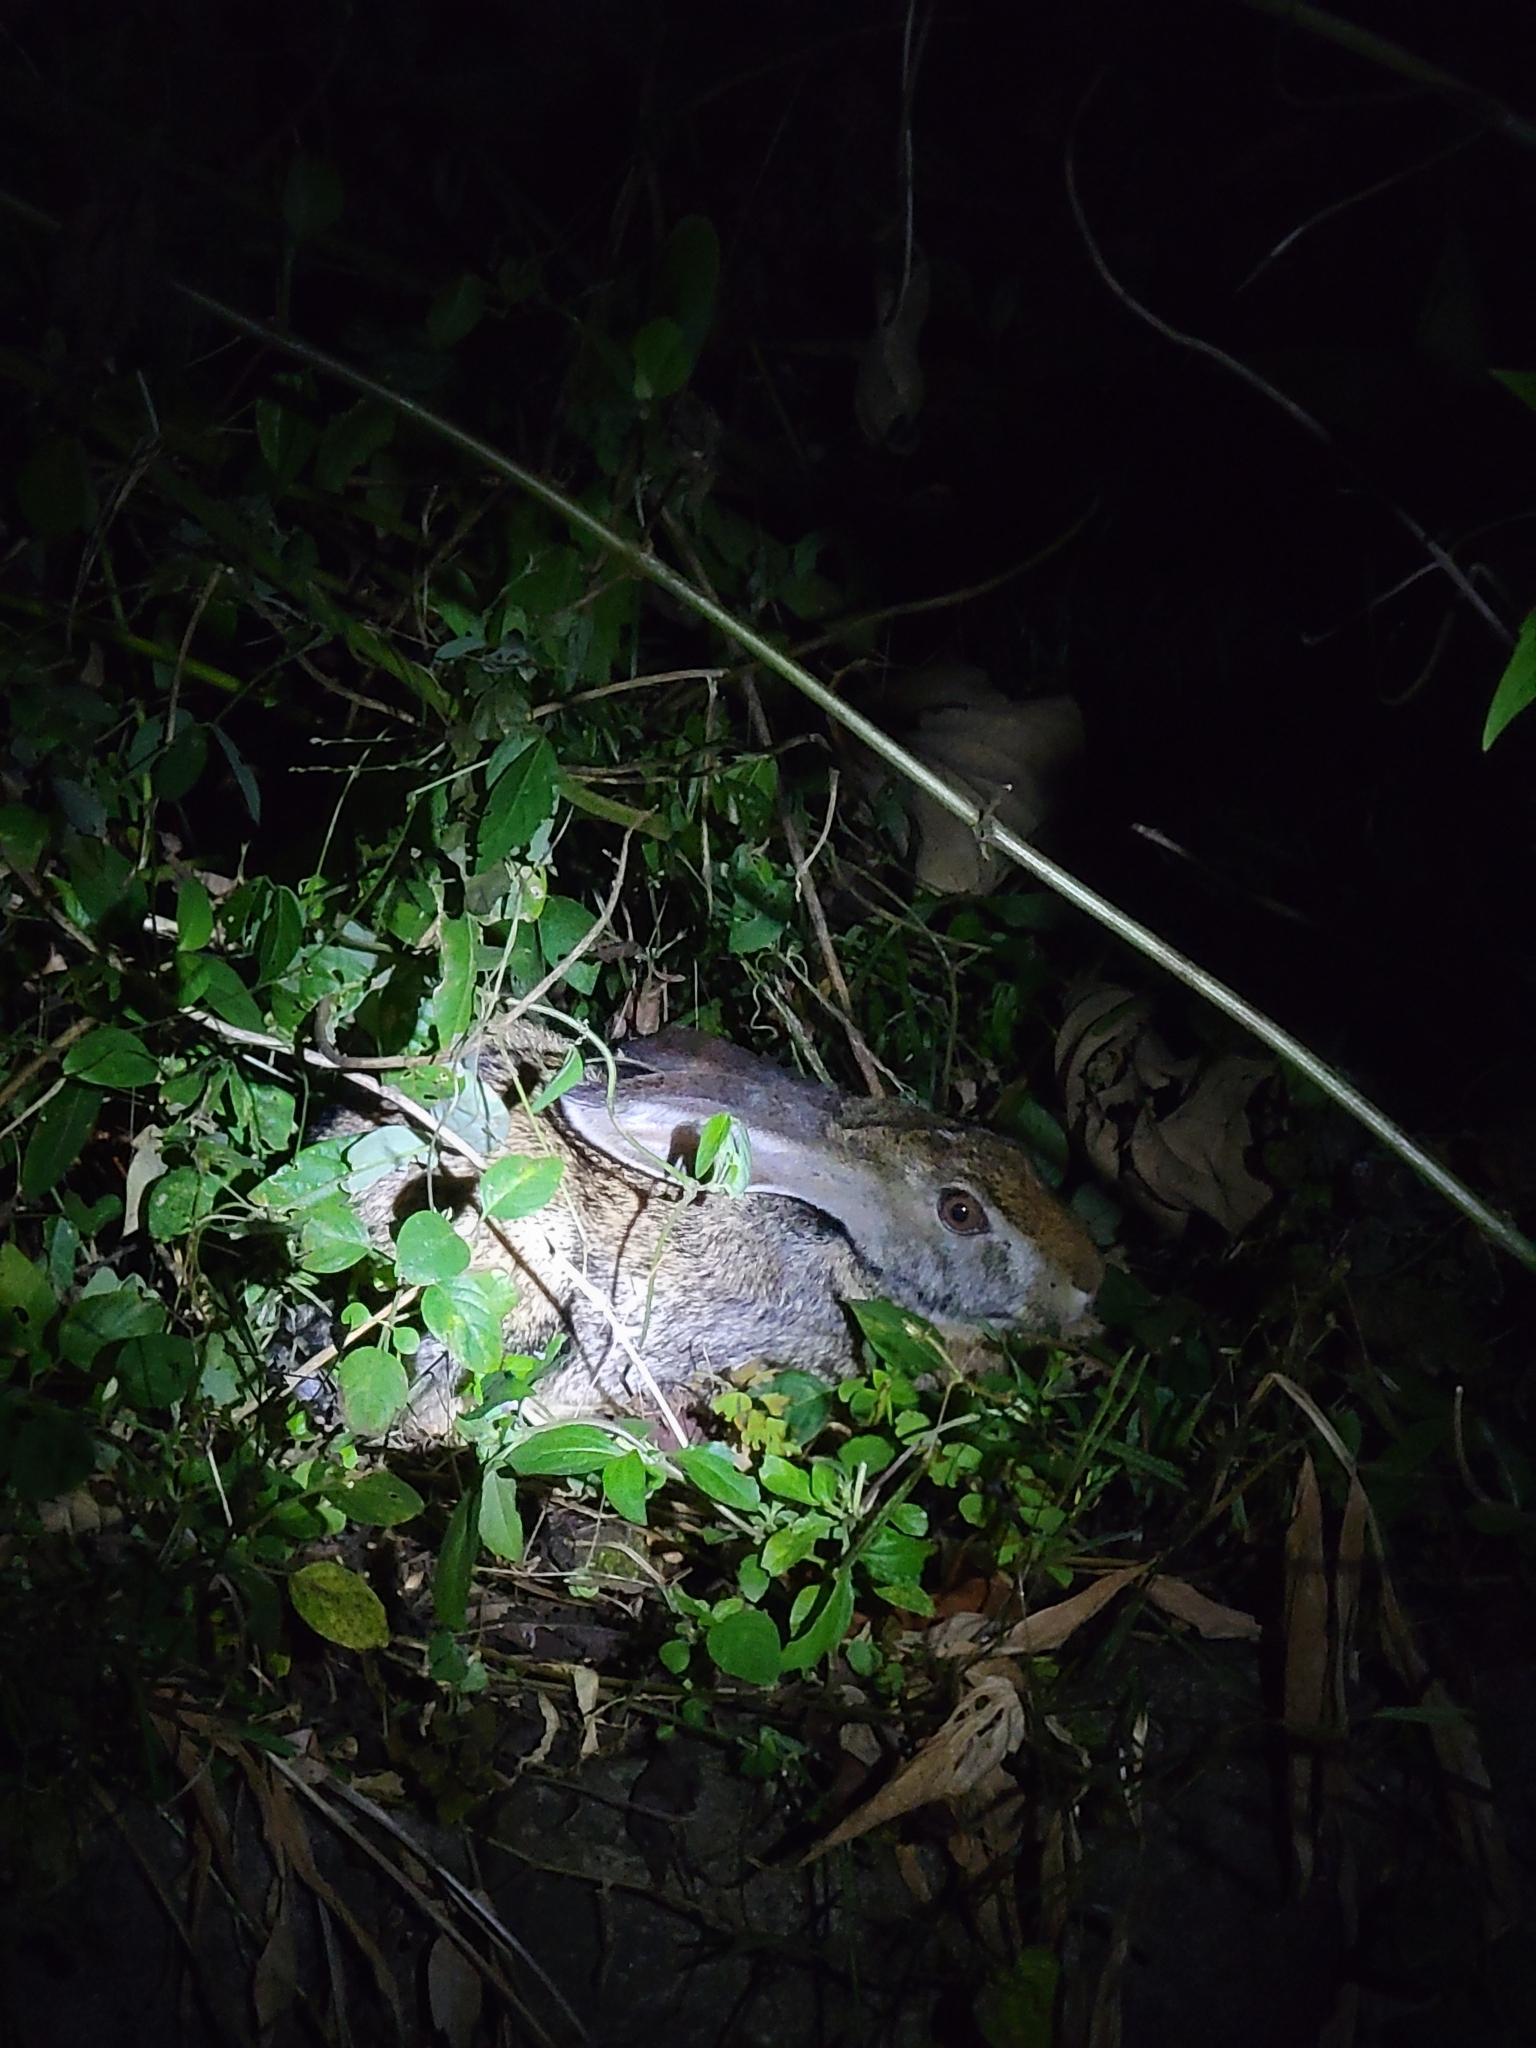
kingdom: Animalia
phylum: Chordata
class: Mammalia
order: Lagomorpha
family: Leporidae
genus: Lepus
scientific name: Lepus nigricollis
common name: Indian hare
